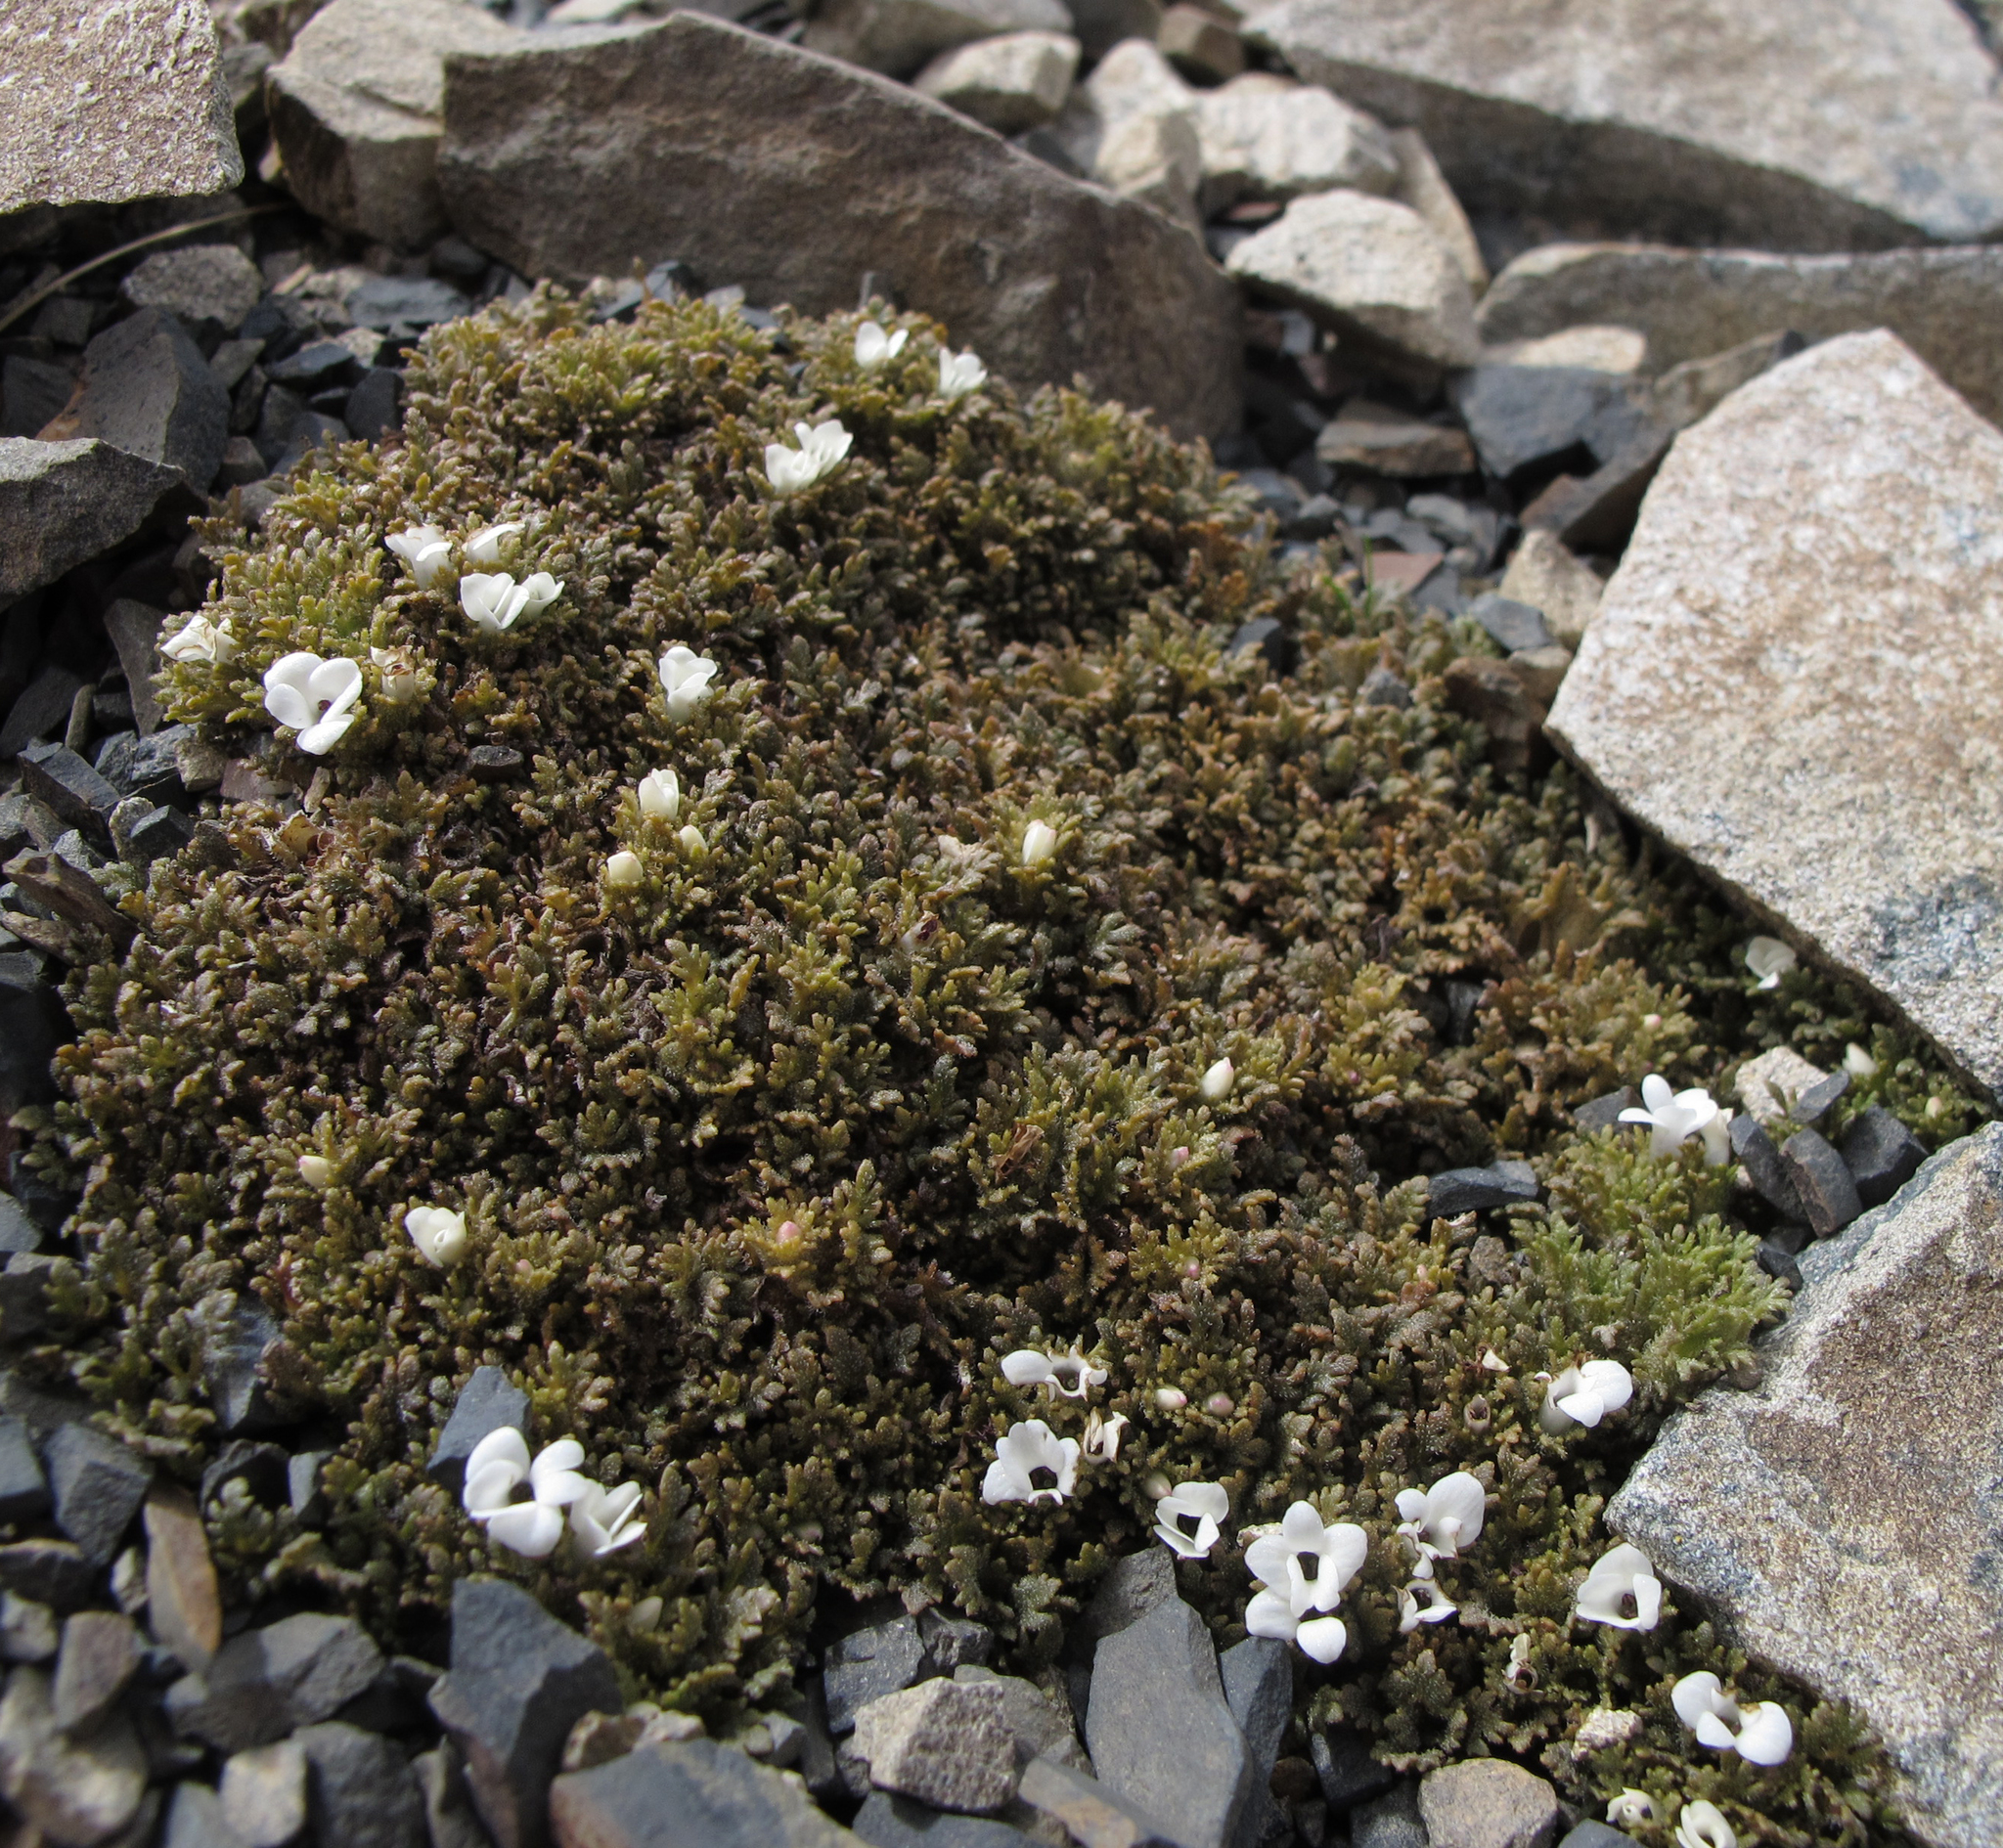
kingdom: Plantae
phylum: Tracheophyta
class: Magnoliopsida
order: Lamiales
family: Plantaginaceae
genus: Veronica
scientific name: Veronica cheesemanii
